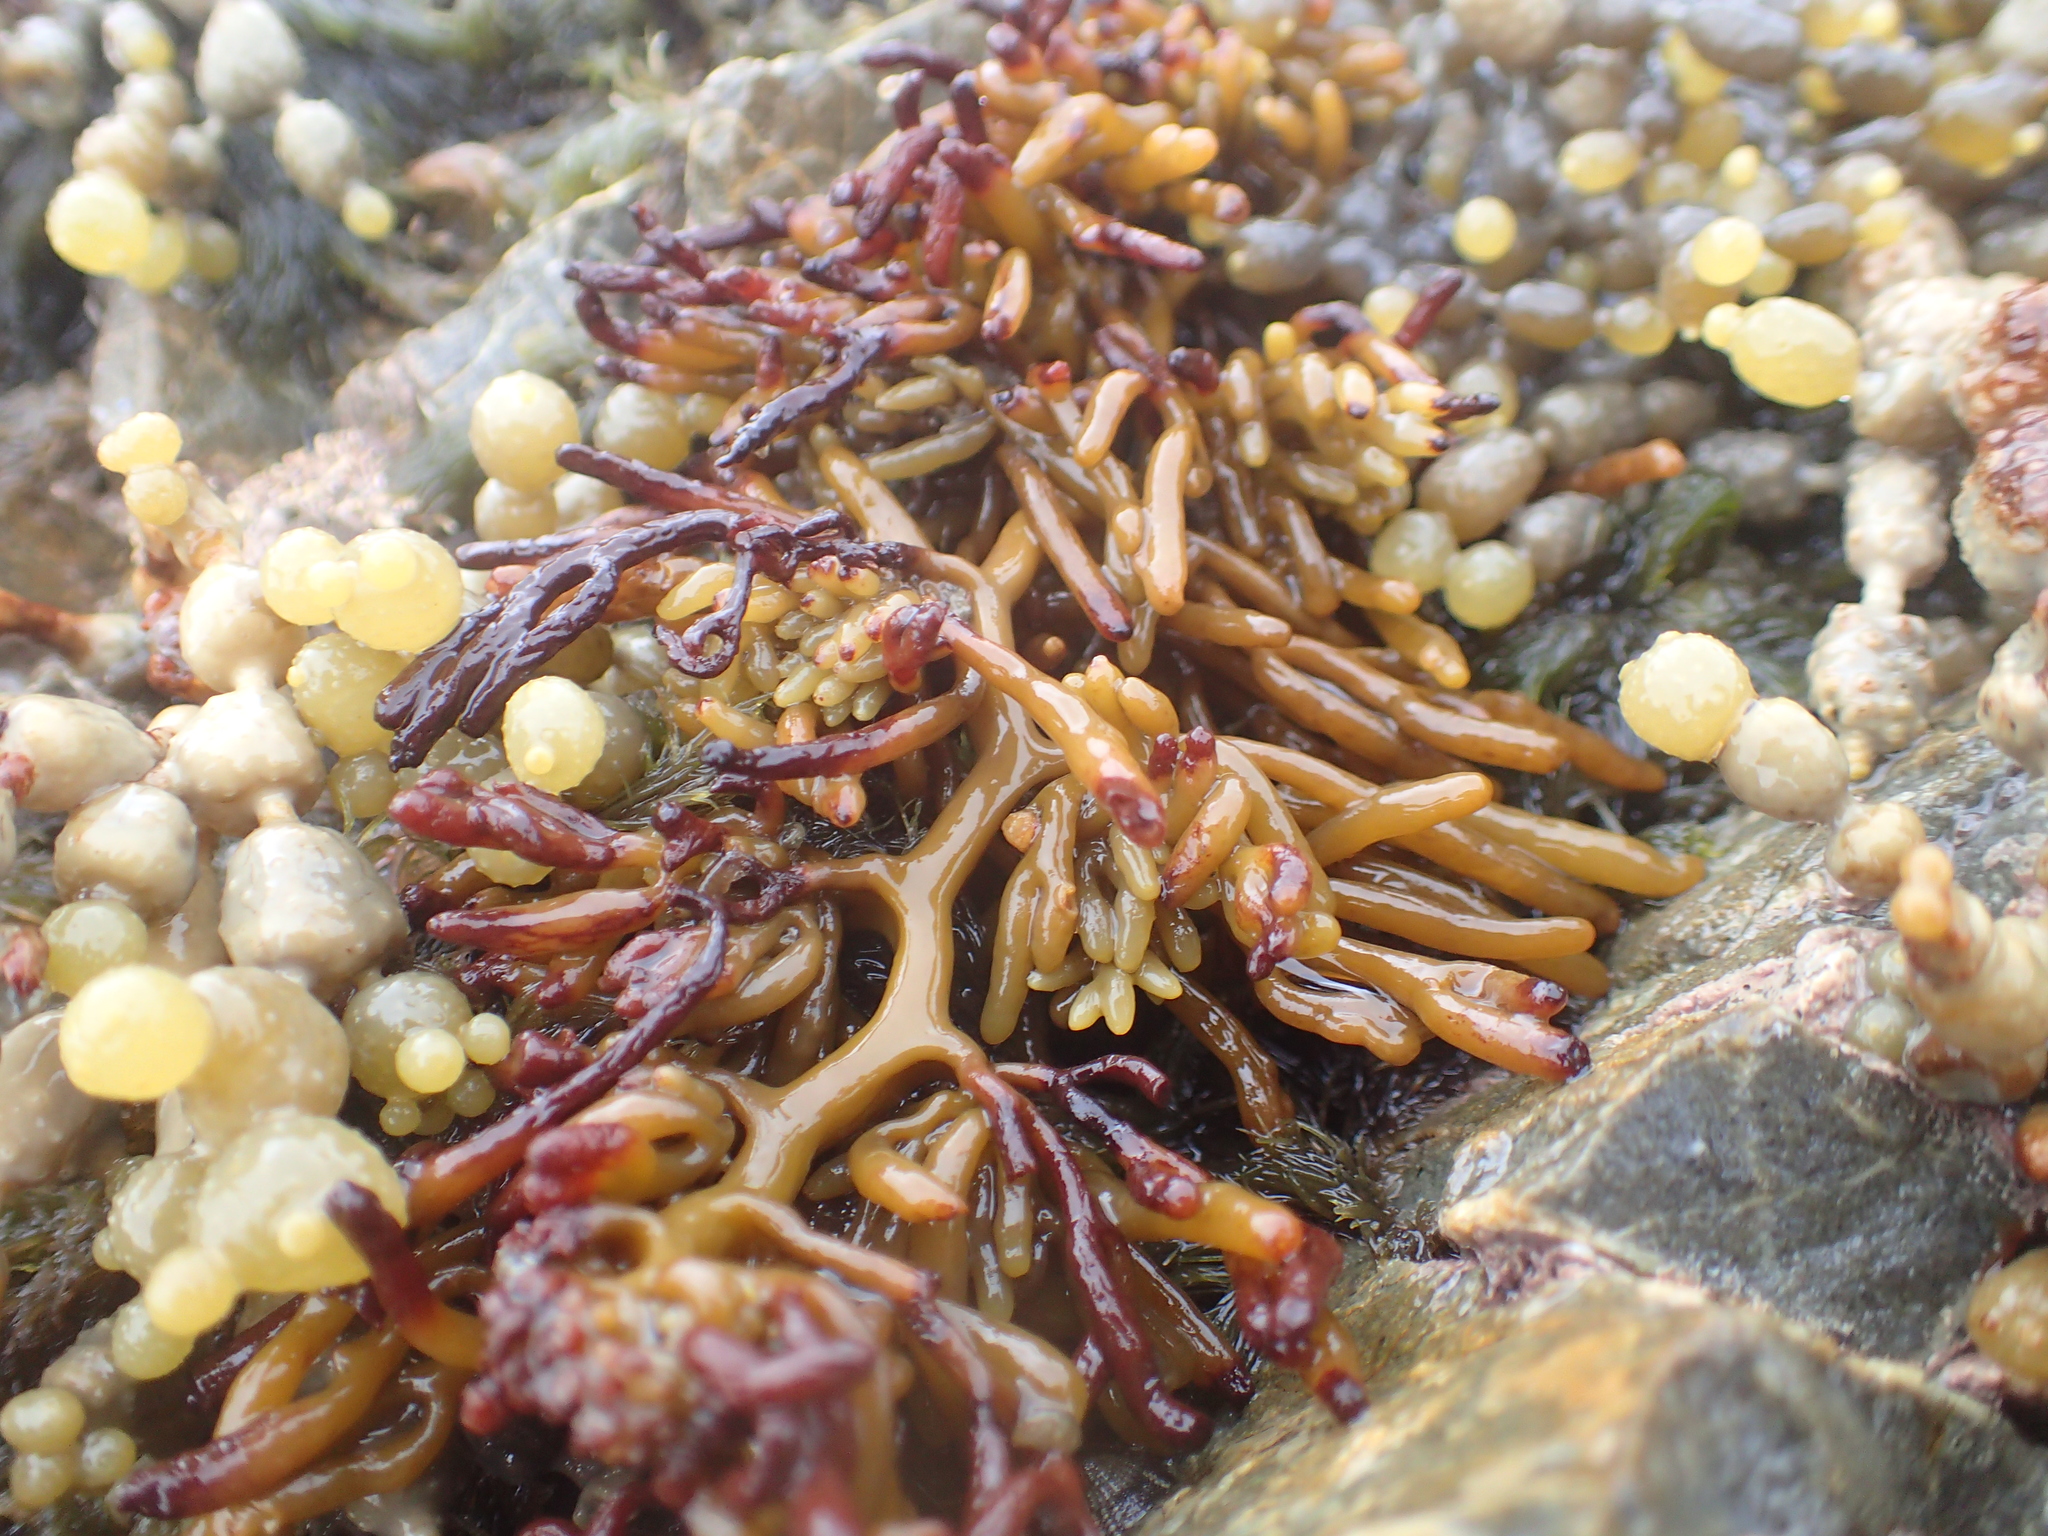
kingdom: Chromista
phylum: Ochrophyta
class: Phaeophyceae
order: Fucales
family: Sargassaceae
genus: Cystophora
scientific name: Cystophora torulosa
